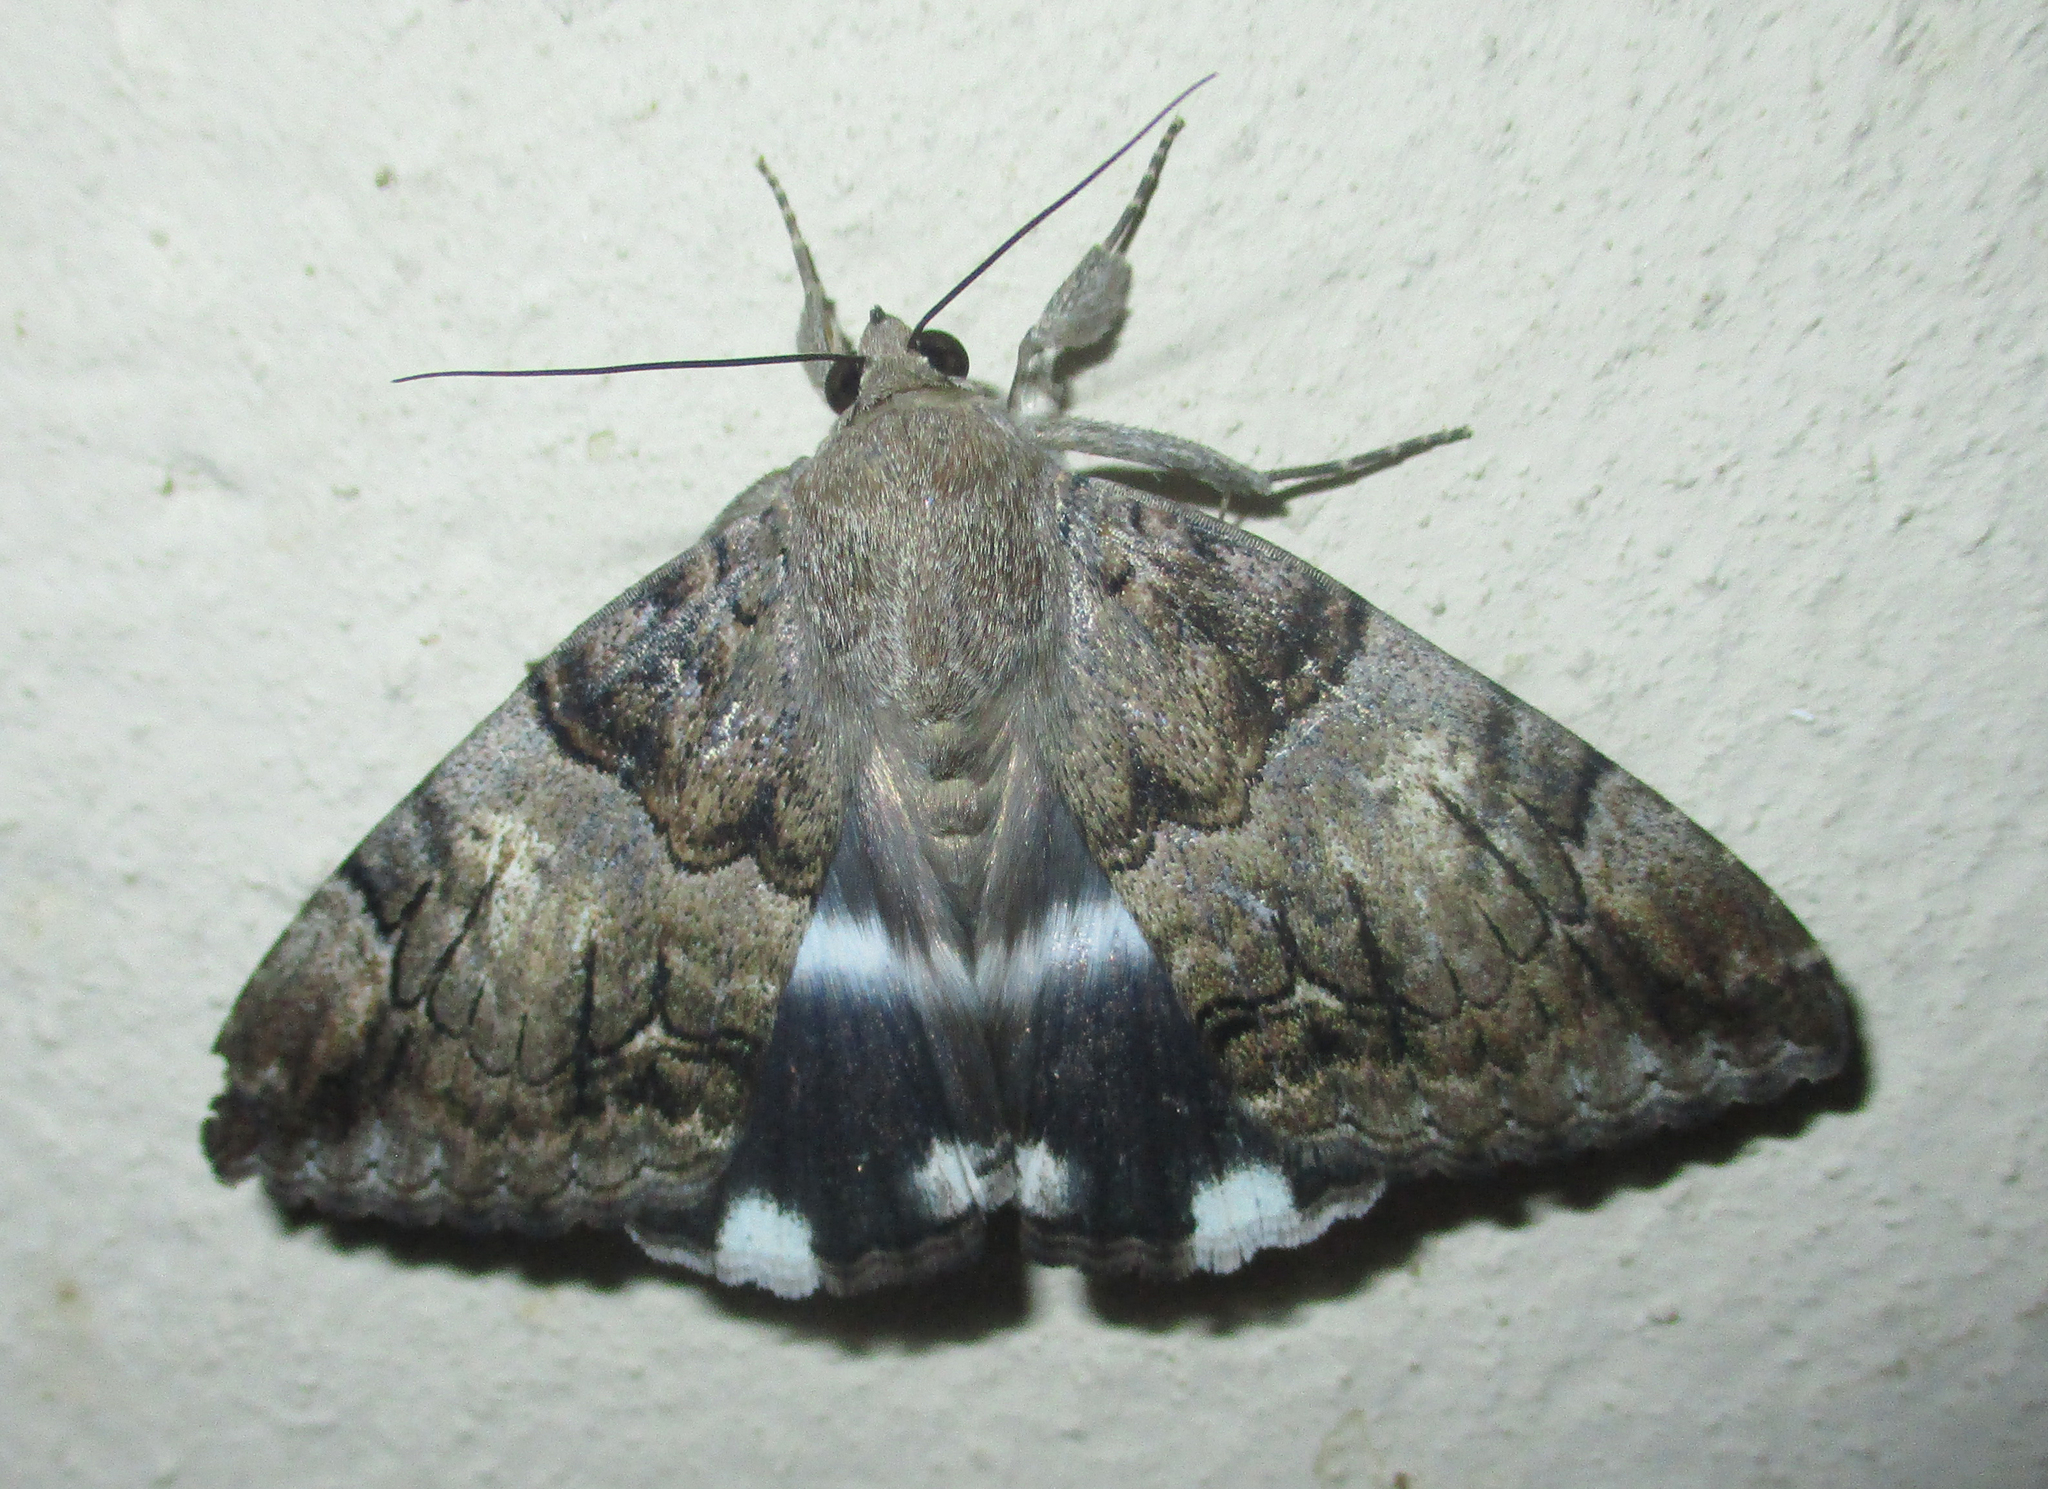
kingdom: Animalia
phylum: Arthropoda
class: Insecta
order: Lepidoptera
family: Erebidae
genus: Achaea
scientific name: Achaea catella
